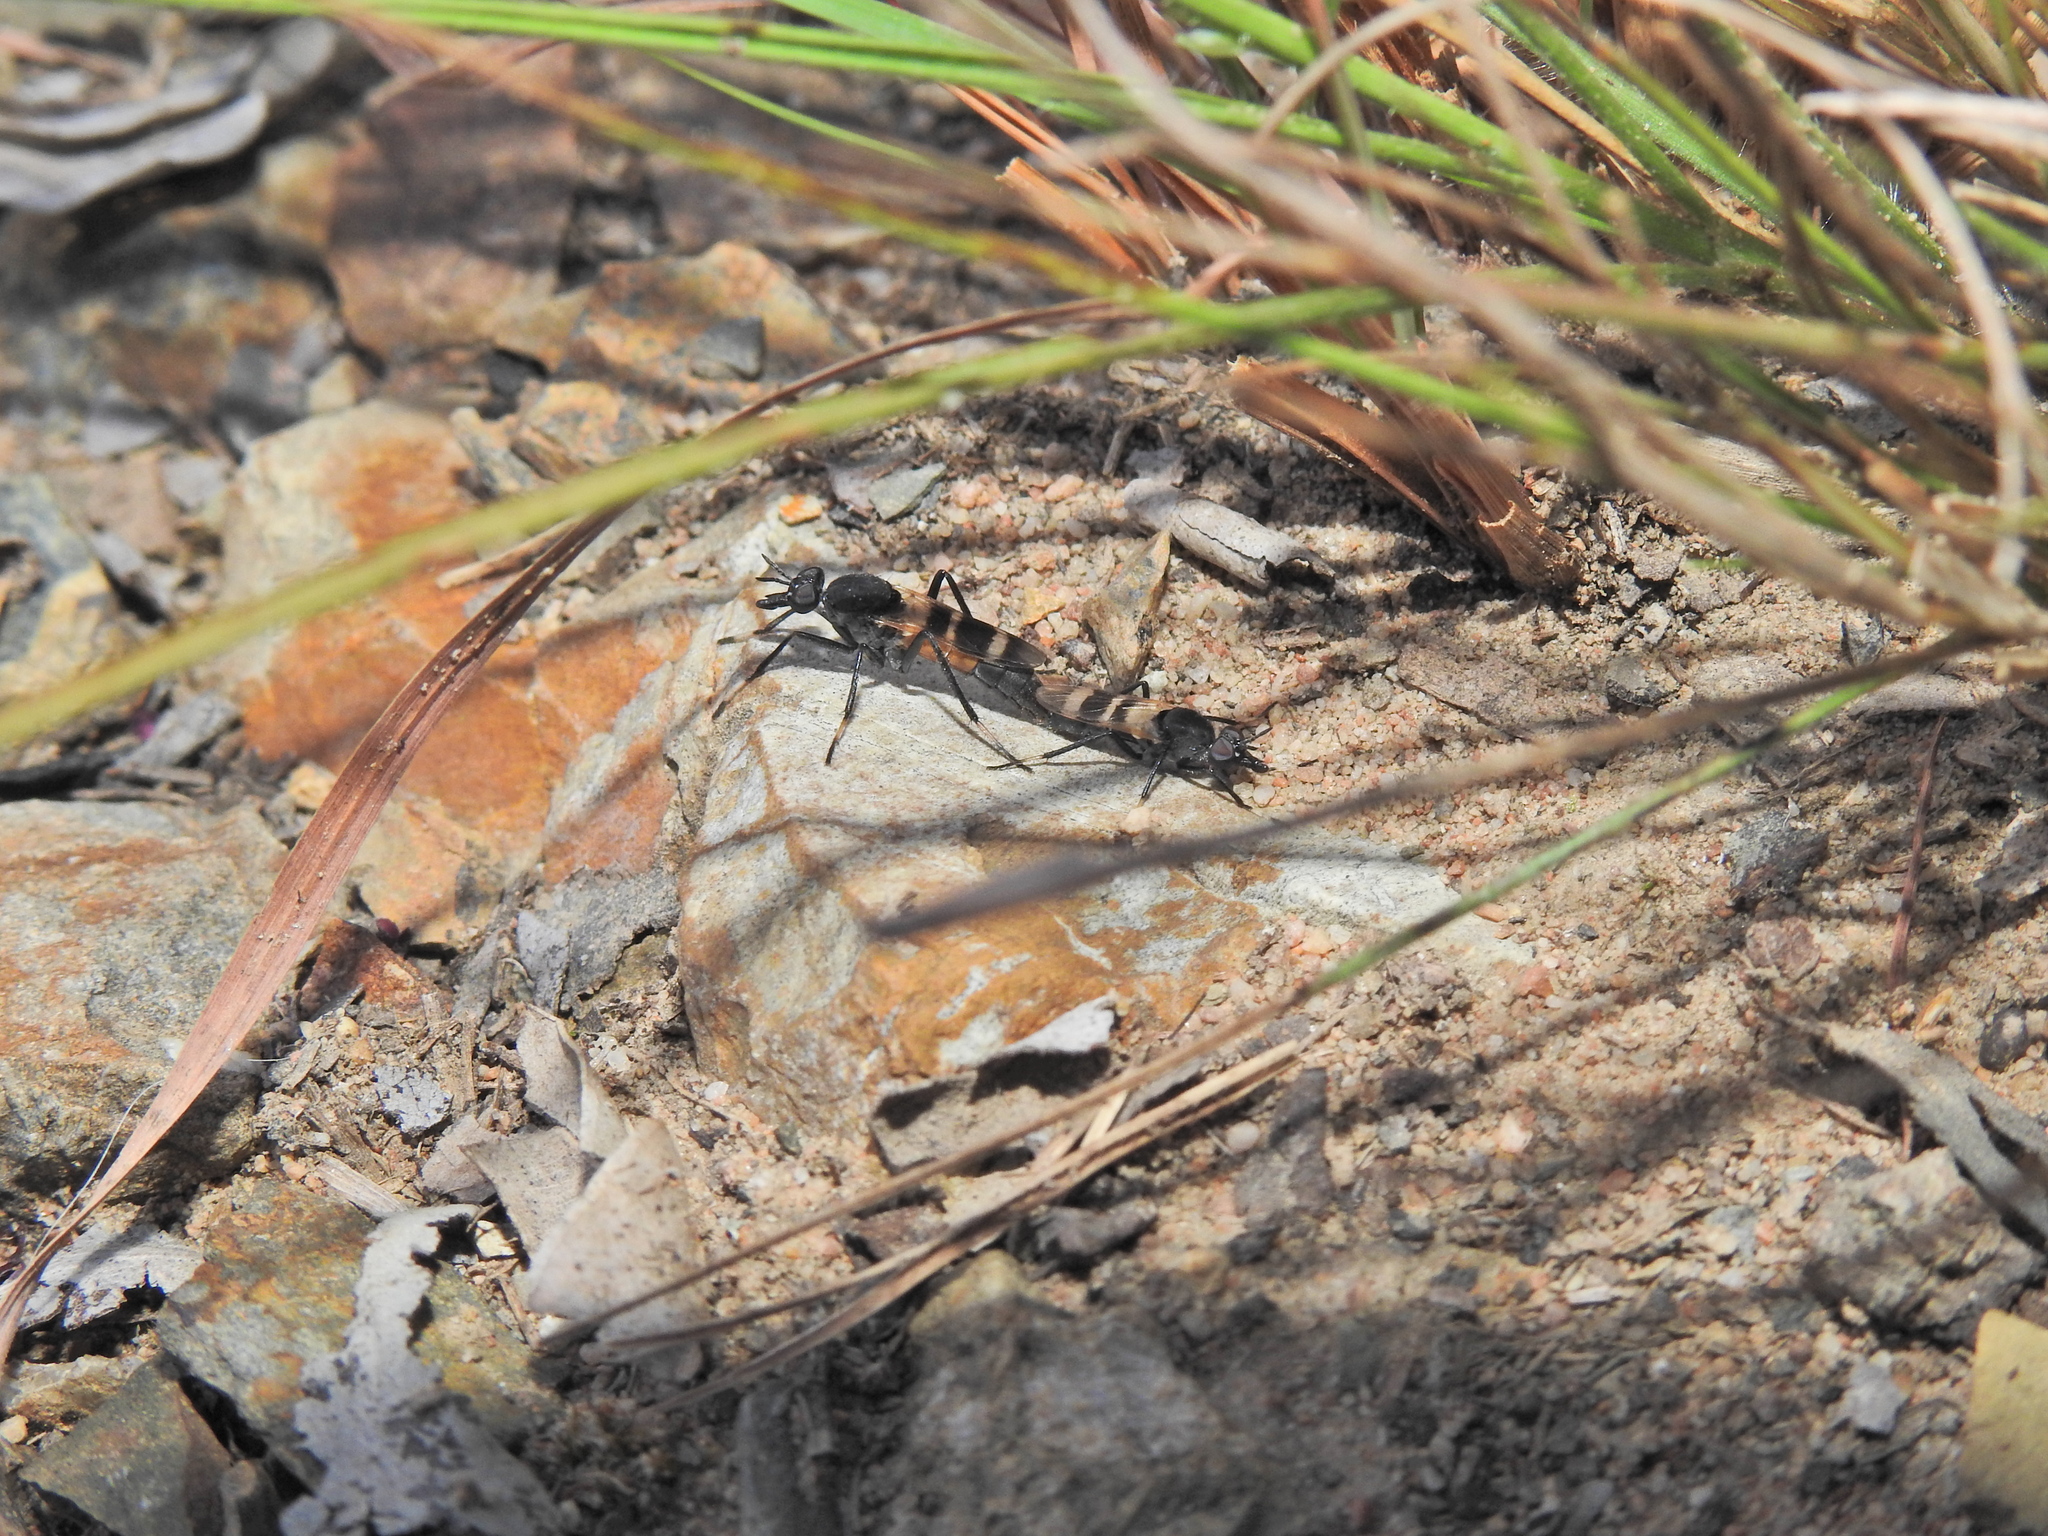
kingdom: Animalia
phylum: Arthropoda
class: Insecta
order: Diptera
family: Therevidae
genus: Acupalpa
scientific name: Acupalpa divisa
